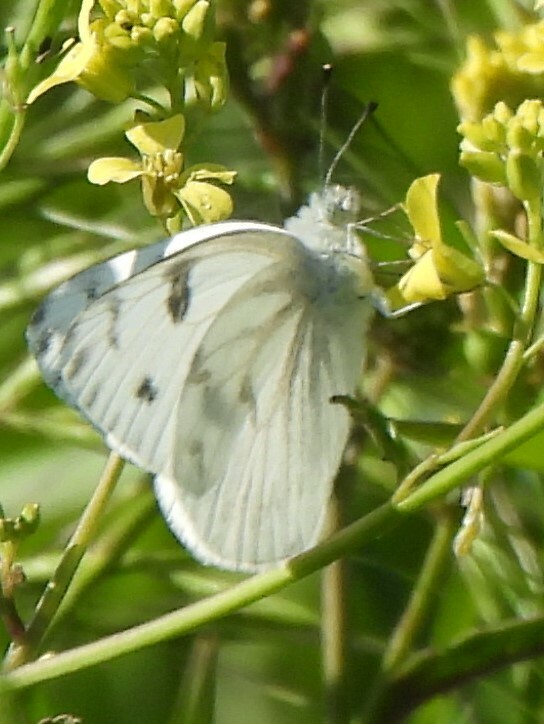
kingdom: Animalia
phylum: Arthropoda
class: Insecta
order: Lepidoptera
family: Pieridae
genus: Pontia
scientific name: Pontia protodice
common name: Checkered white
